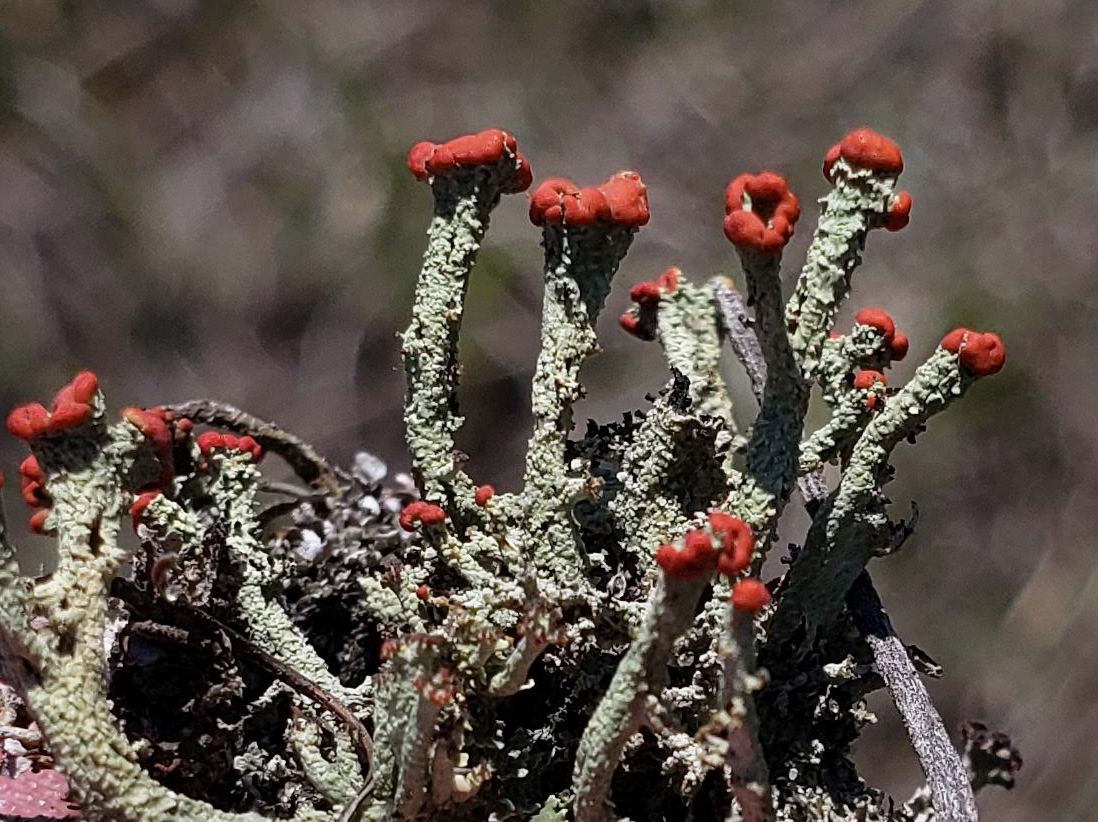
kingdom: Fungi
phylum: Ascomycota
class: Lecanoromycetes
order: Lecanorales
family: Cladoniaceae
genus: Cladonia
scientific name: Cladonia cristatella
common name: British soldier lichen
